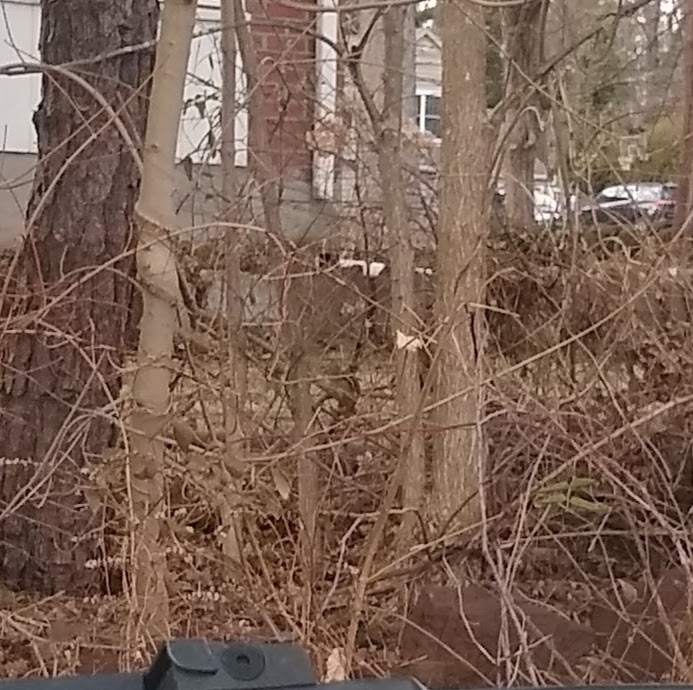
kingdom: Animalia
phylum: Chordata
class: Mammalia
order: Rodentia
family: Sciuridae
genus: Tamias
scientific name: Tamias striatus
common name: Eastern chipmunk
